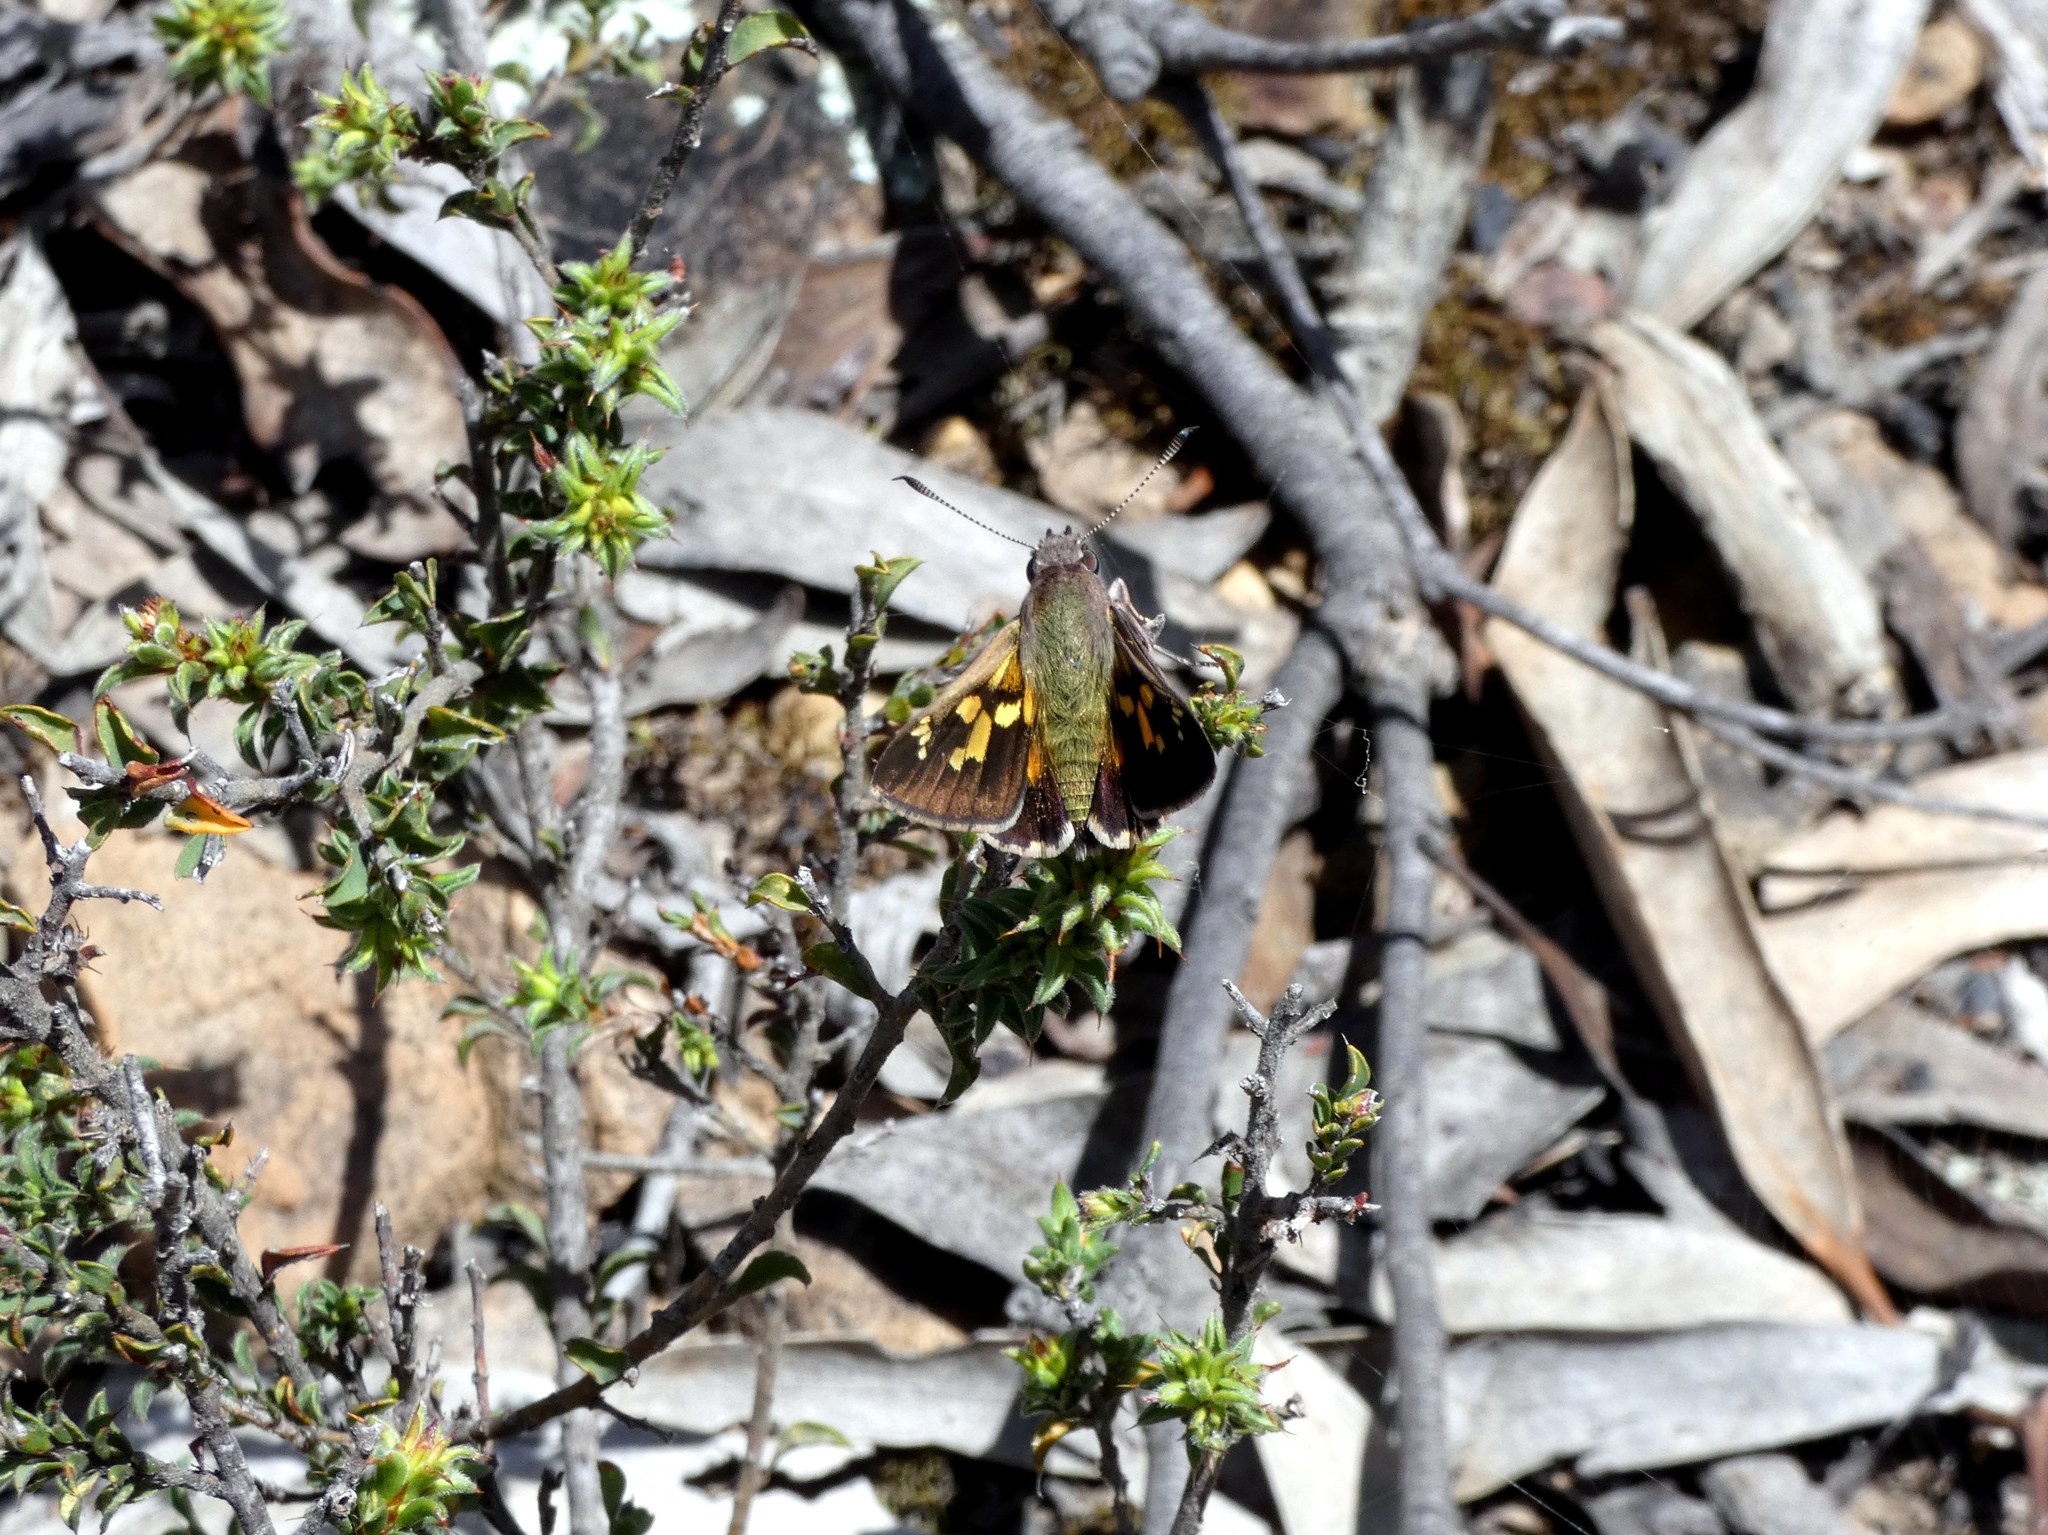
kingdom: Animalia
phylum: Arthropoda
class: Insecta
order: Lepidoptera
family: Hesperiidae
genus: Trapezites
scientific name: Trapezites phigalioides
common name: Montane ochre
